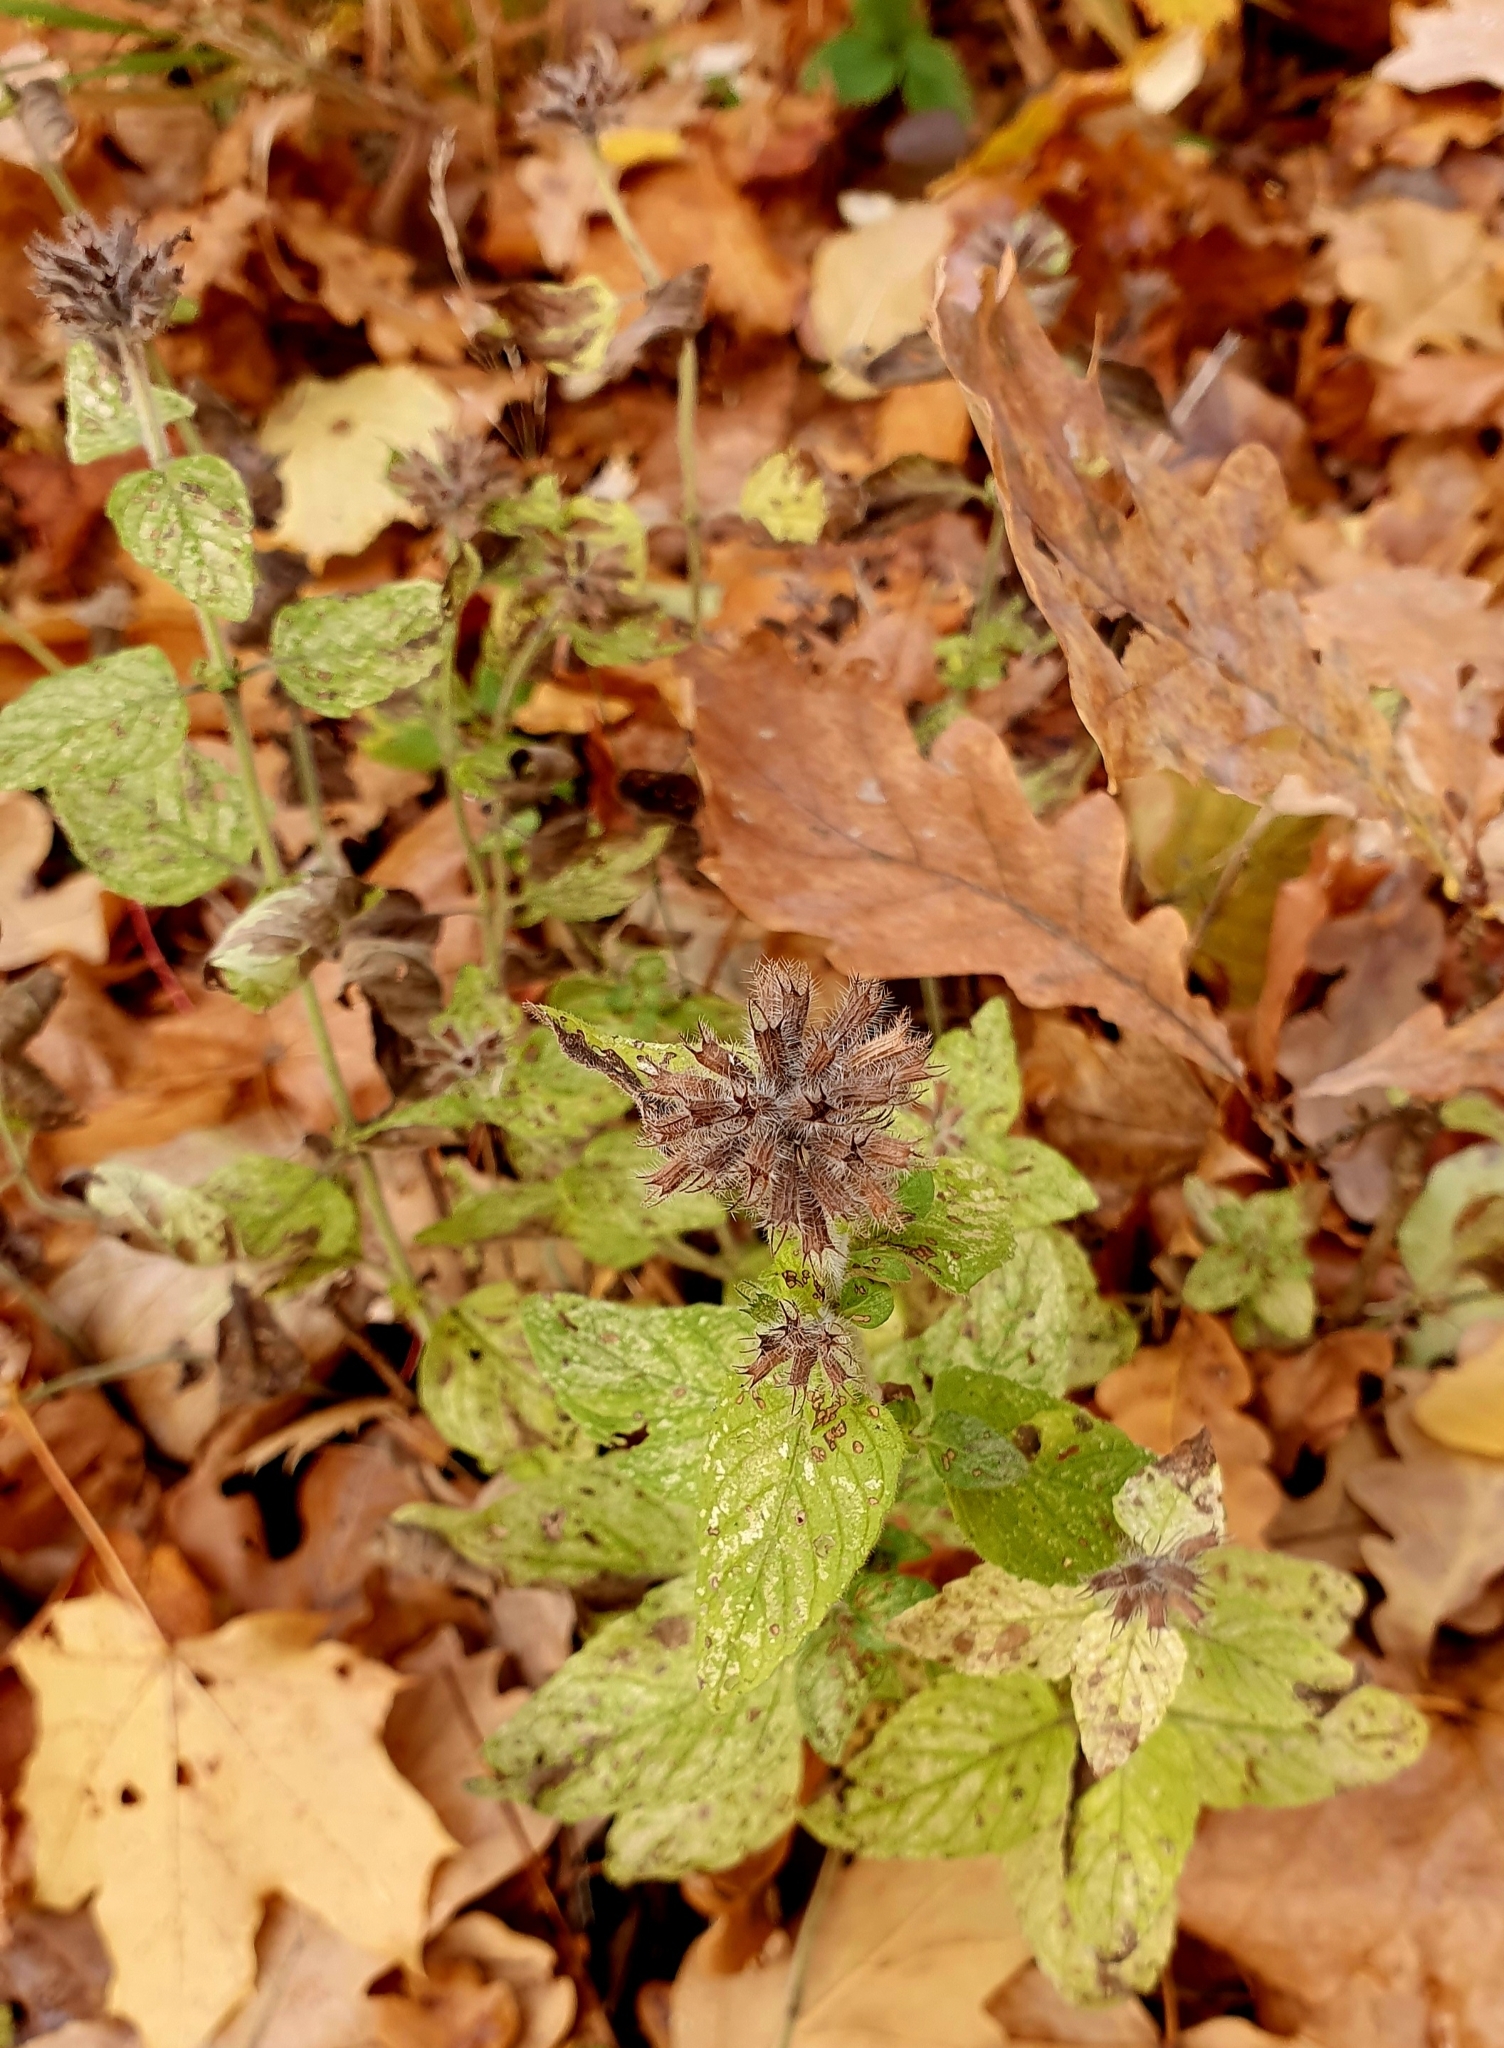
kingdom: Plantae
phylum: Tracheophyta
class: Magnoliopsida
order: Lamiales
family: Lamiaceae
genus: Clinopodium
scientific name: Clinopodium vulgare
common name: Wild basil
